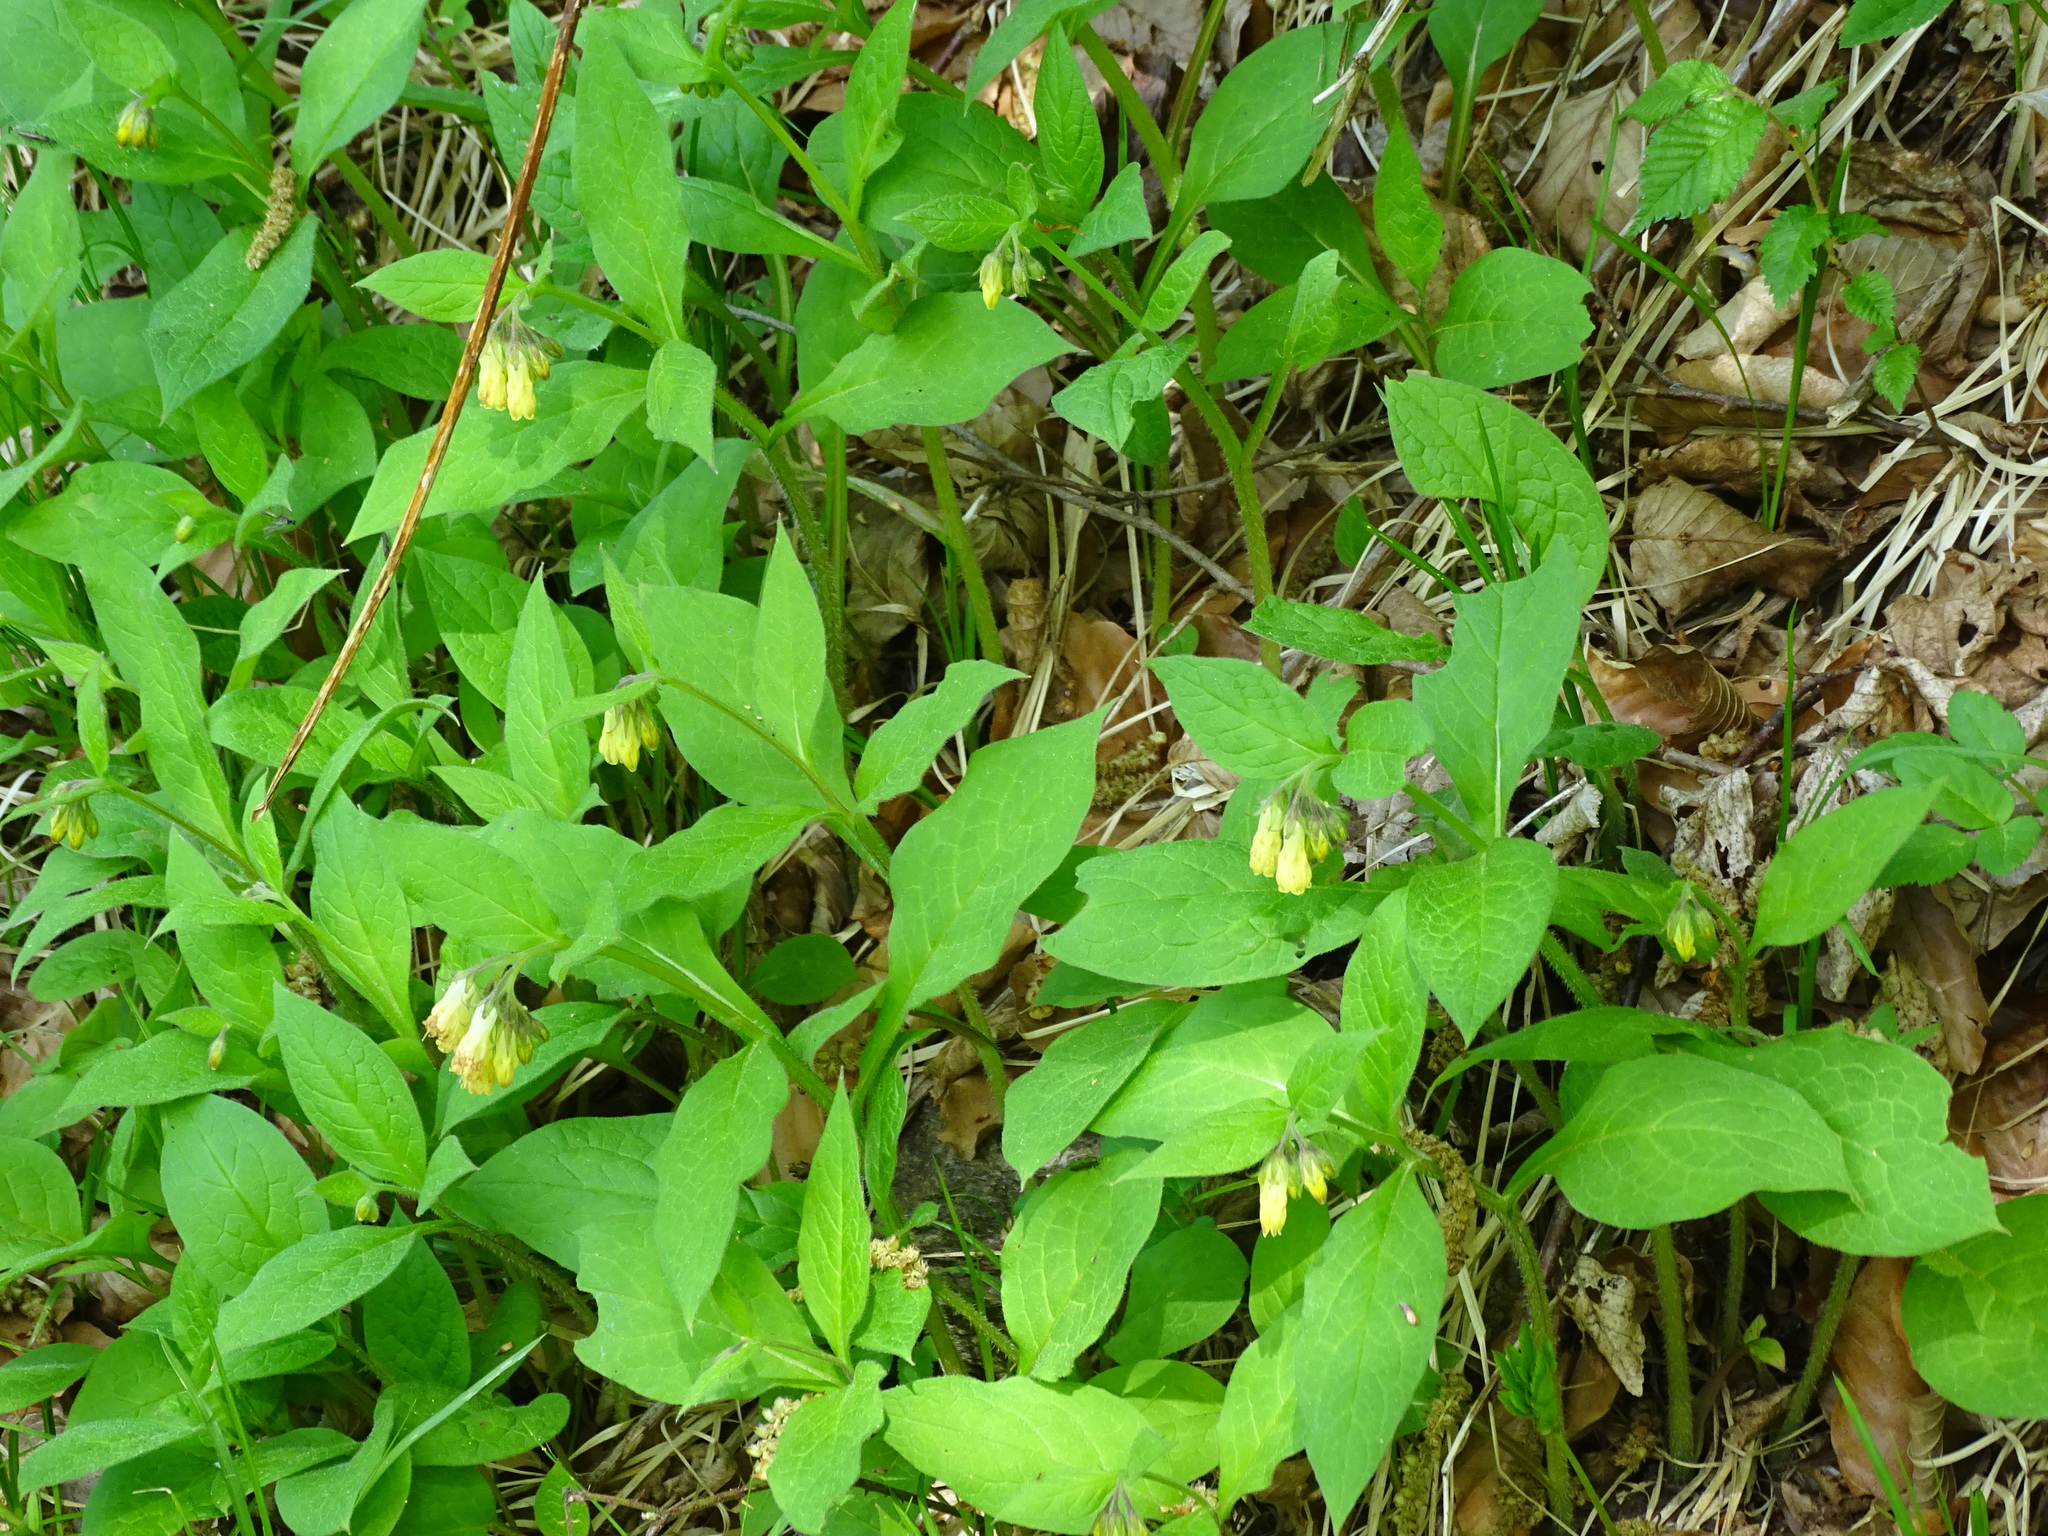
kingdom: Plantae
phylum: Tracheophyta
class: Magnoliopsida
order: Boraginales
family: Boraginaceae
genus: Symphytum
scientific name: Symphytum tuberosum
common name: Tuberous comfrey
